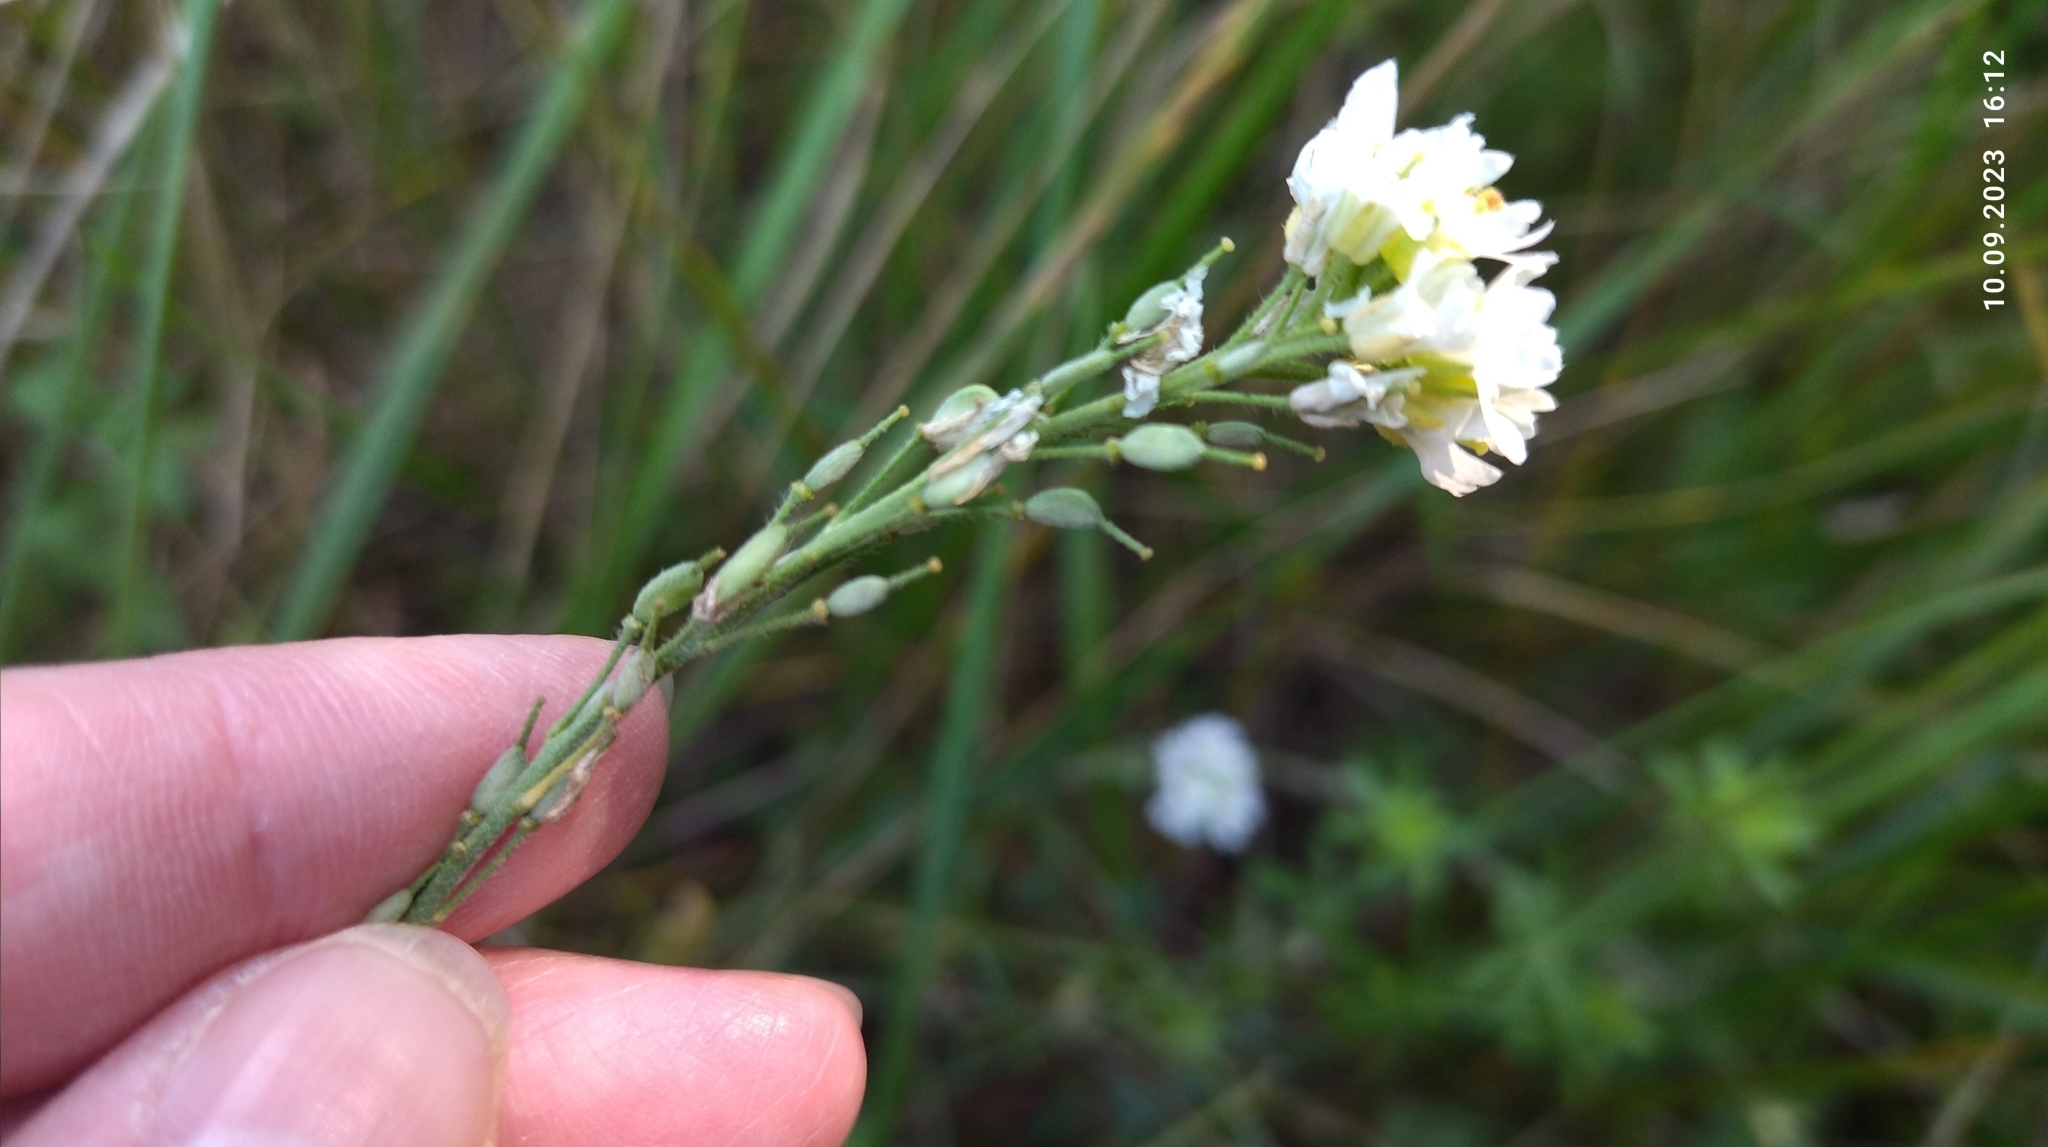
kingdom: Plantae
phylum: Tracheophyta
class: Magnoliopsida
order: Brassicales
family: Brassicaceae
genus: Berteroa
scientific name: Berteroa incana
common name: Hoary alison
